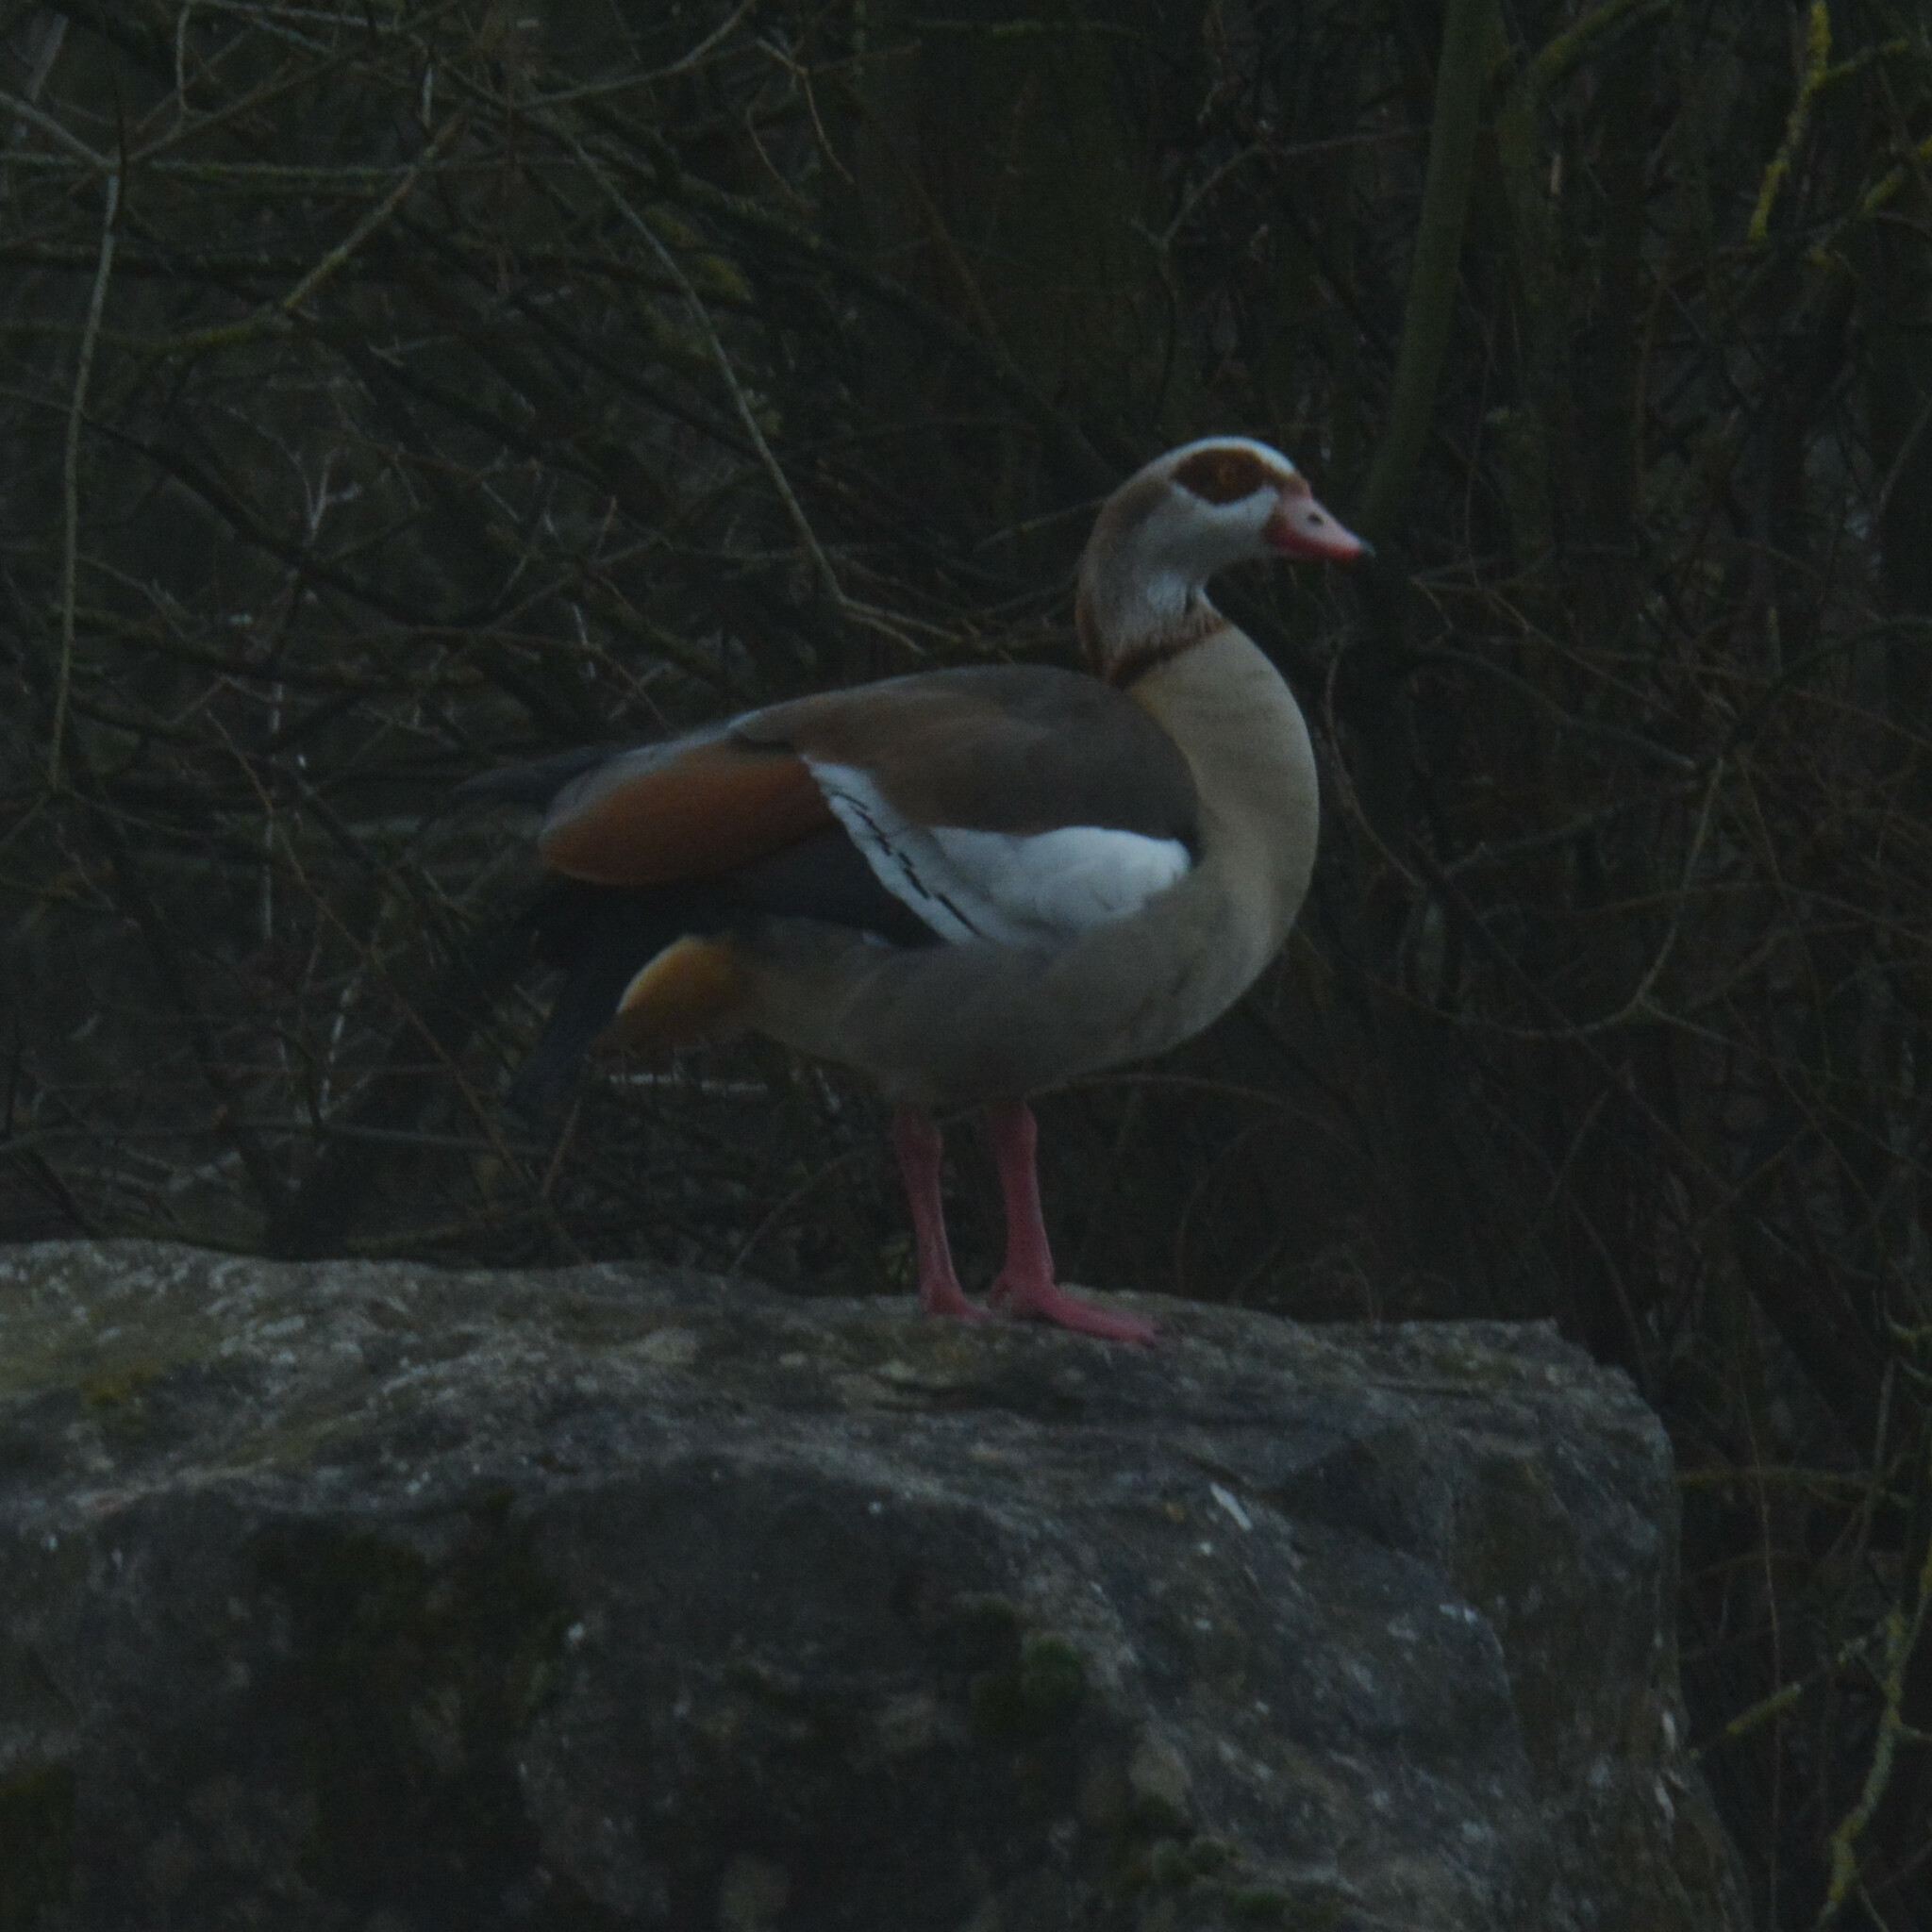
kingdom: Animalia
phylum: Chordata
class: Aves
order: Anseriformes
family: Anatidae
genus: Alopochen
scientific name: Alopochen aegyptiaca
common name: Egyptian goose
